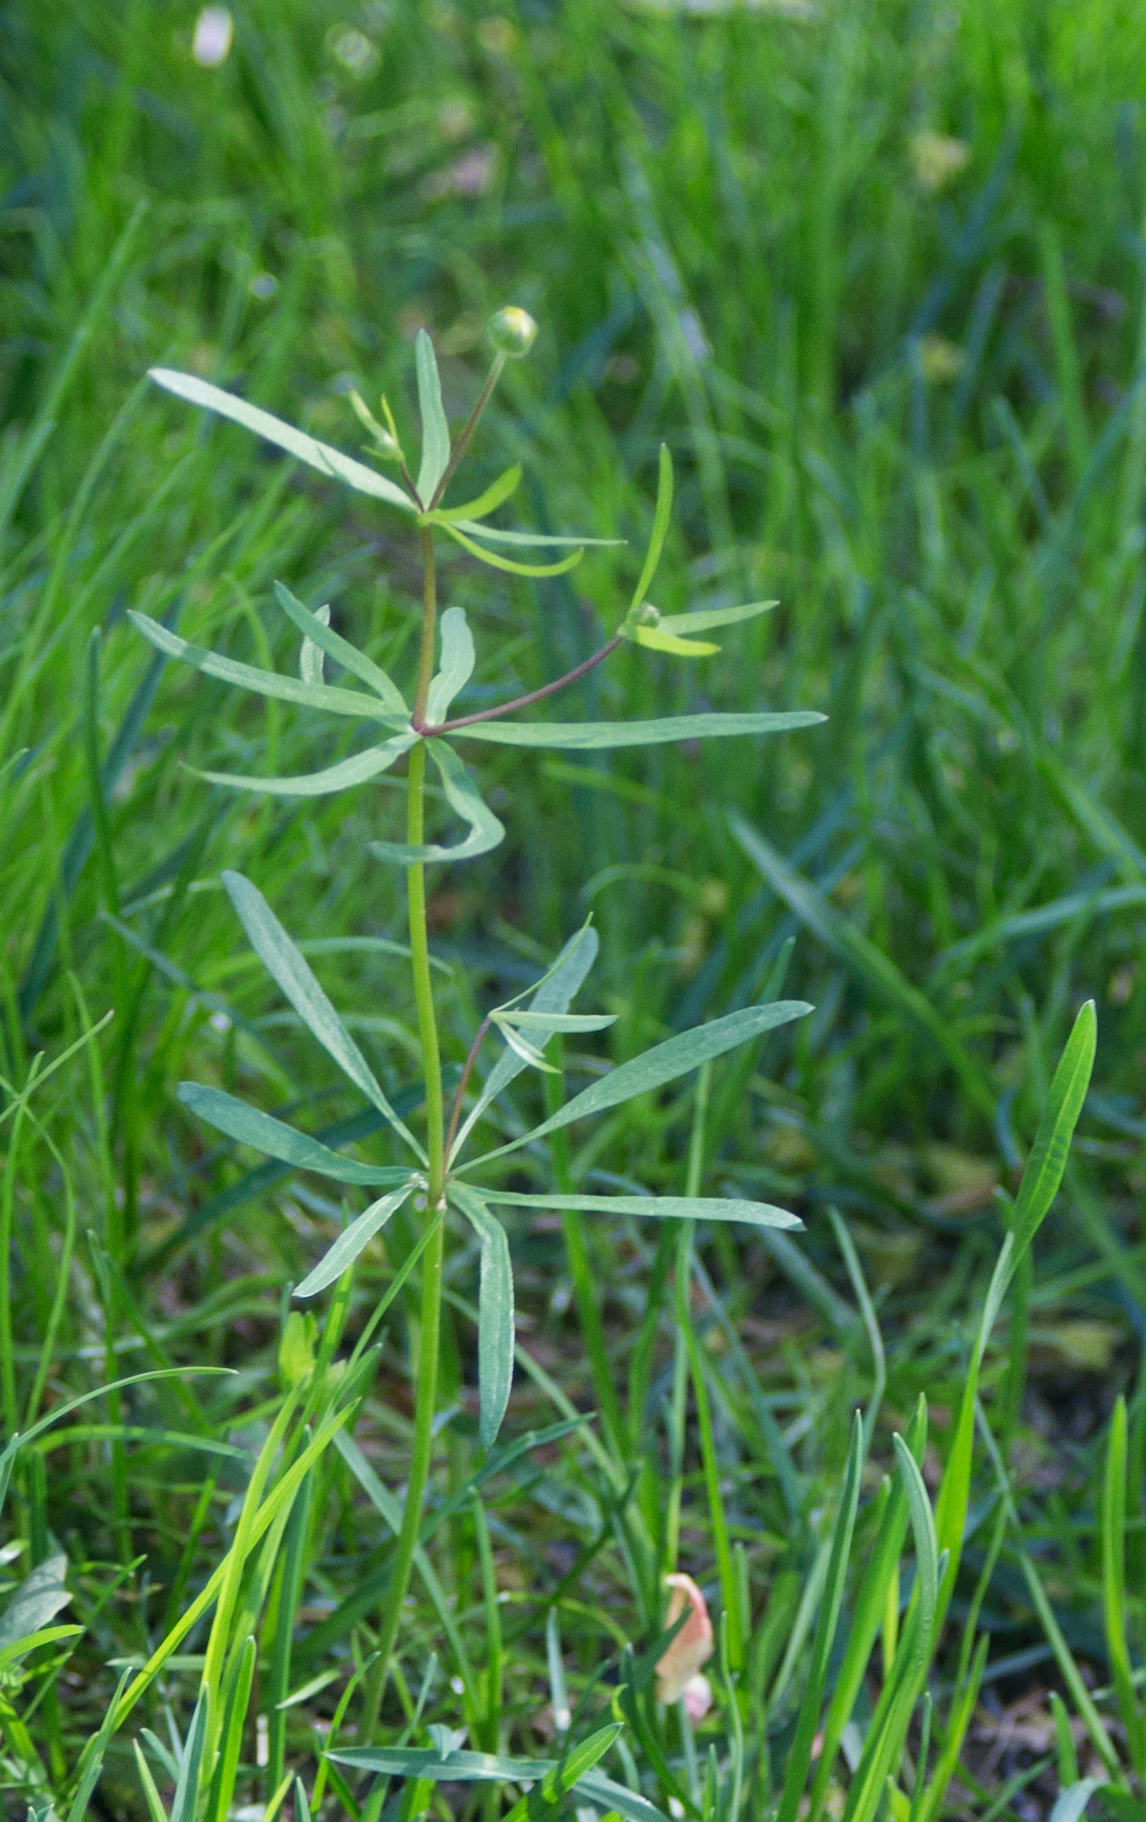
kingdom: Plantae
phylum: Tracheophyta
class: Magnoliopsida
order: Ranunculales
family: Ranunculaceae
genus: Ranunculus
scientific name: Ranunculus auricomus
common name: Goldilocks buttercup
